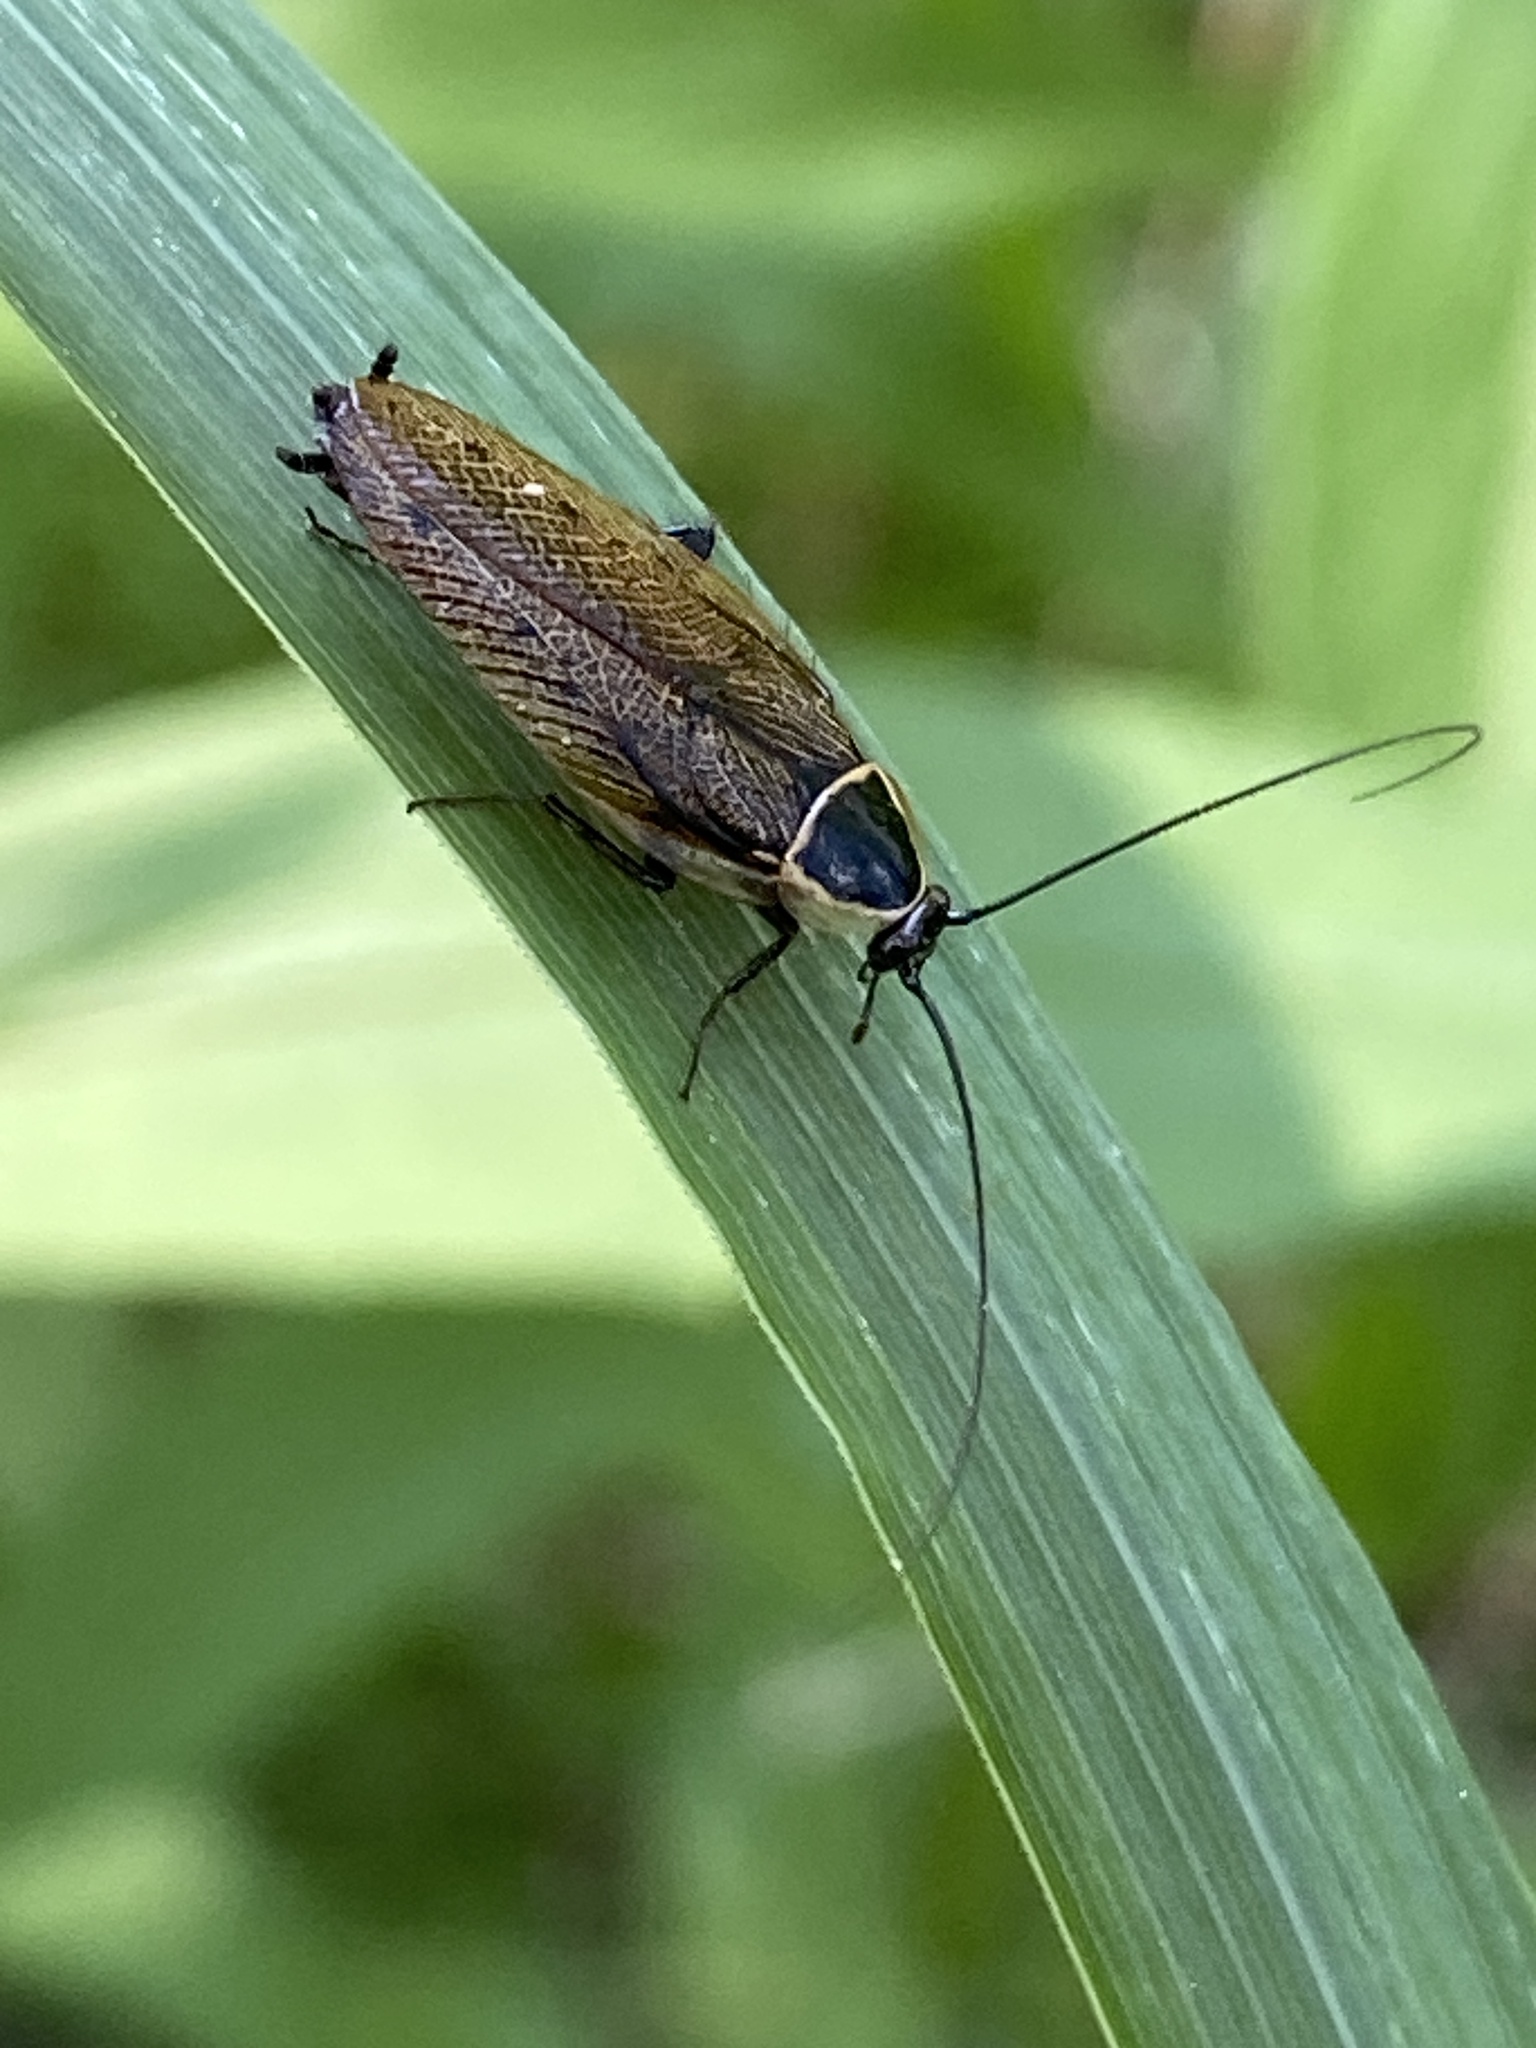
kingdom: Animalia
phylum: Arthropoda
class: Insecta
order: Blattodea
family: Ectobiidae
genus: Ectobius
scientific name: Ectobius sylvestris
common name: Forest cockroach
